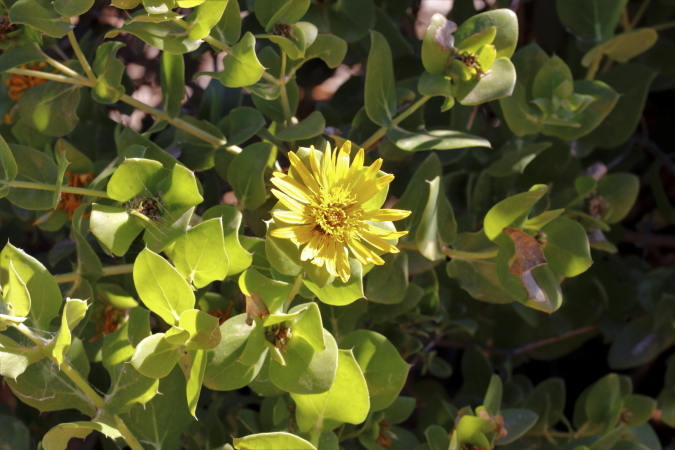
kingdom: Plantae
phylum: Tracheophyta
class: Magnoliopsida
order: Asterales
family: Asteraceae
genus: Didelta
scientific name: Didelta spinosa
